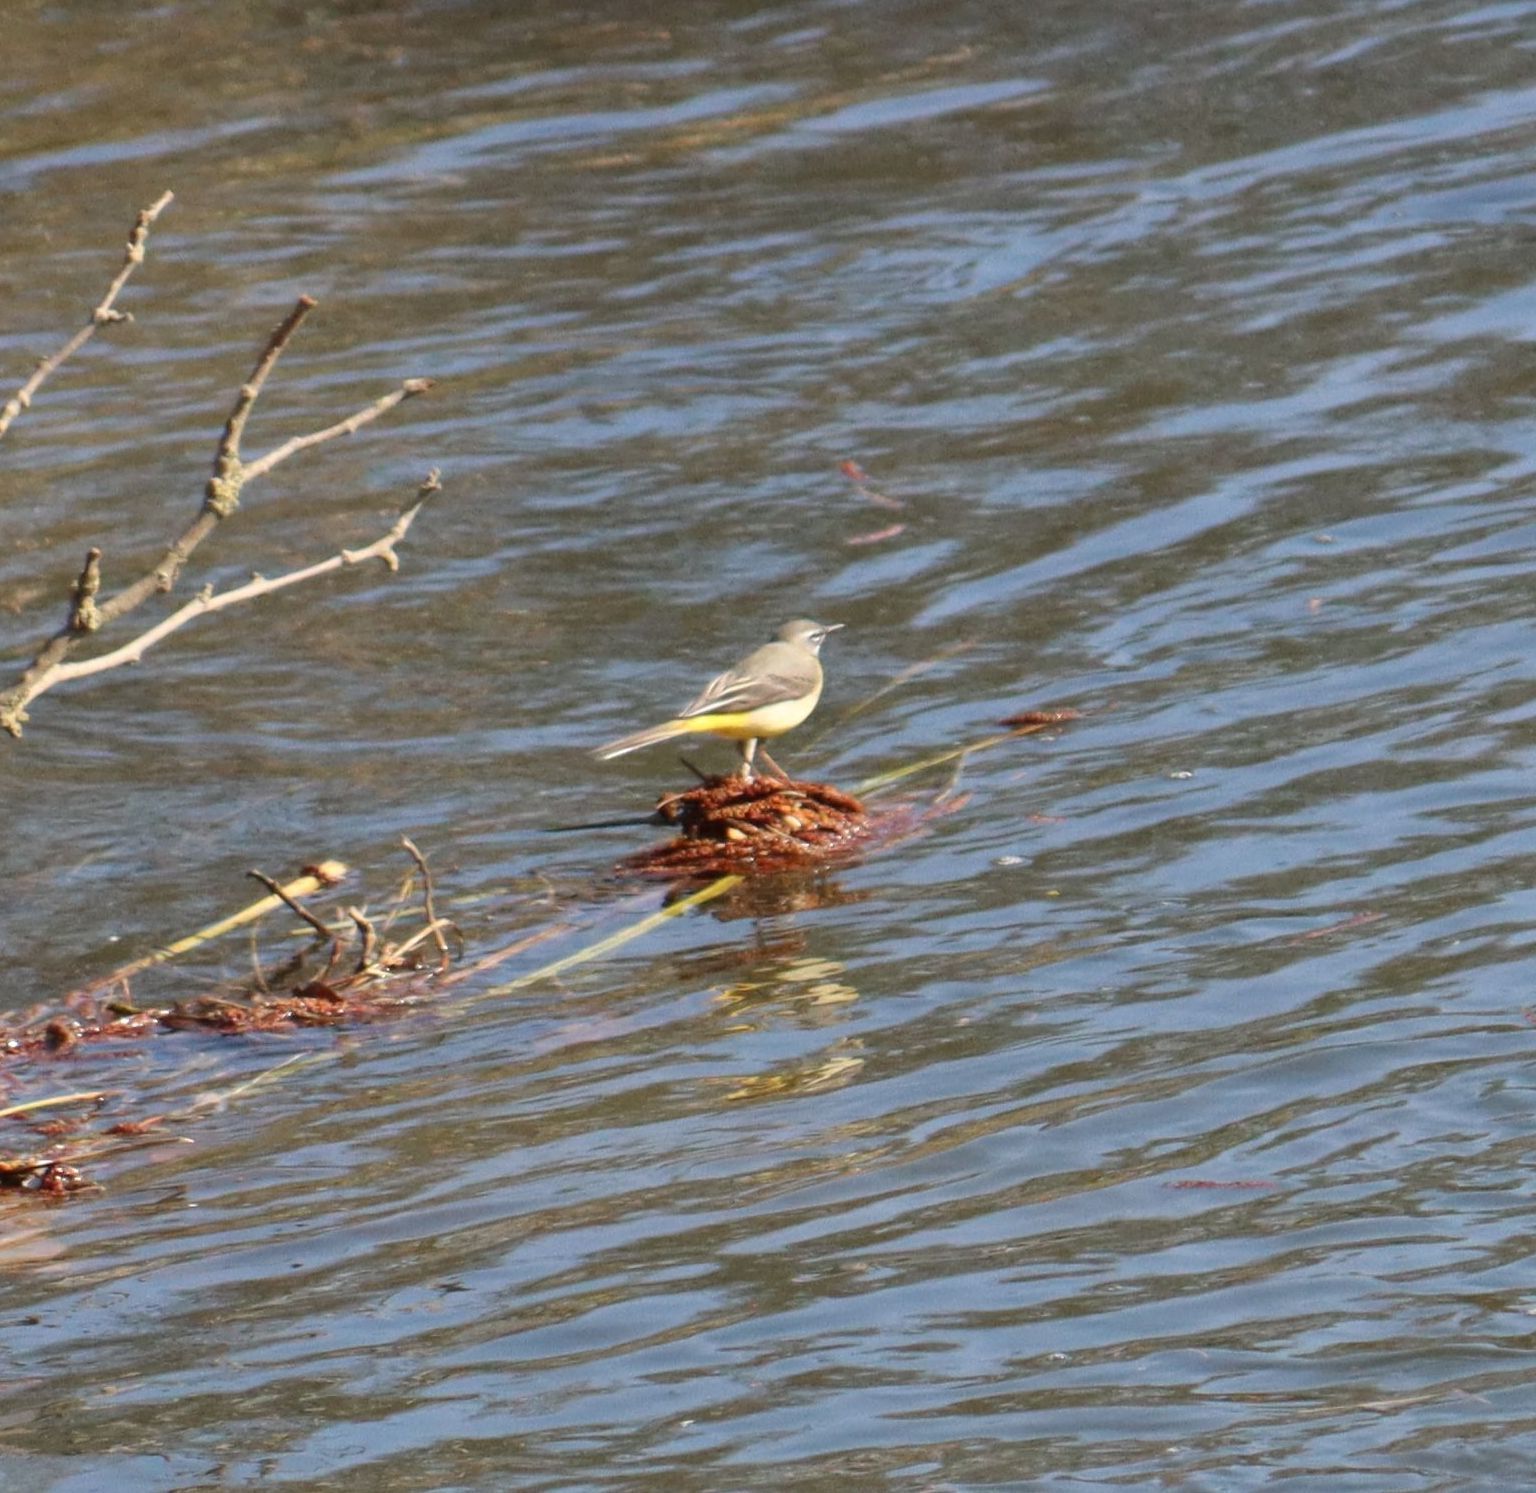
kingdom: Animalia
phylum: Chordata
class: Aves
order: Passeriformes
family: Motacillidae
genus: Motacilla
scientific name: Motacilla cinerea
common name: Grey wagtail
